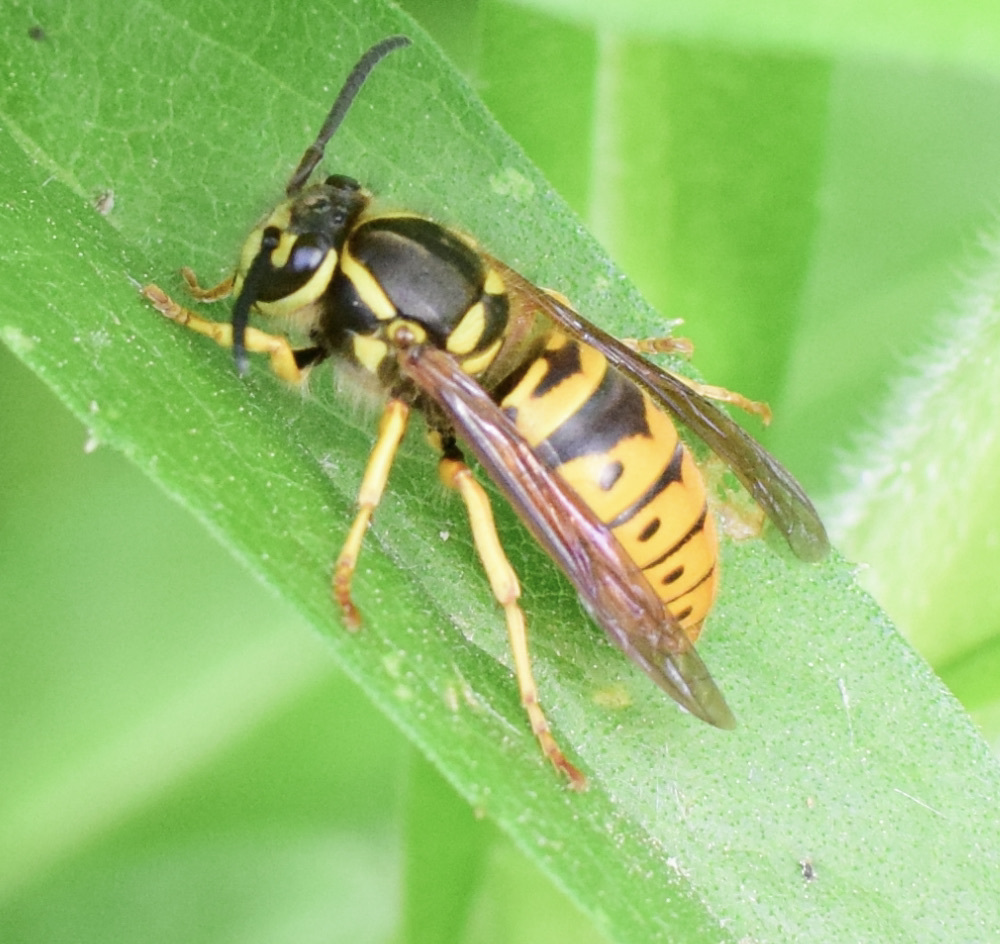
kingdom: Animalia
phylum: Arthropoda
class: Insecta
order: Hymenoptera
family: Vespidae
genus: Vespula
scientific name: Vespula maculifrons
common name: Eastern yellowjacket
